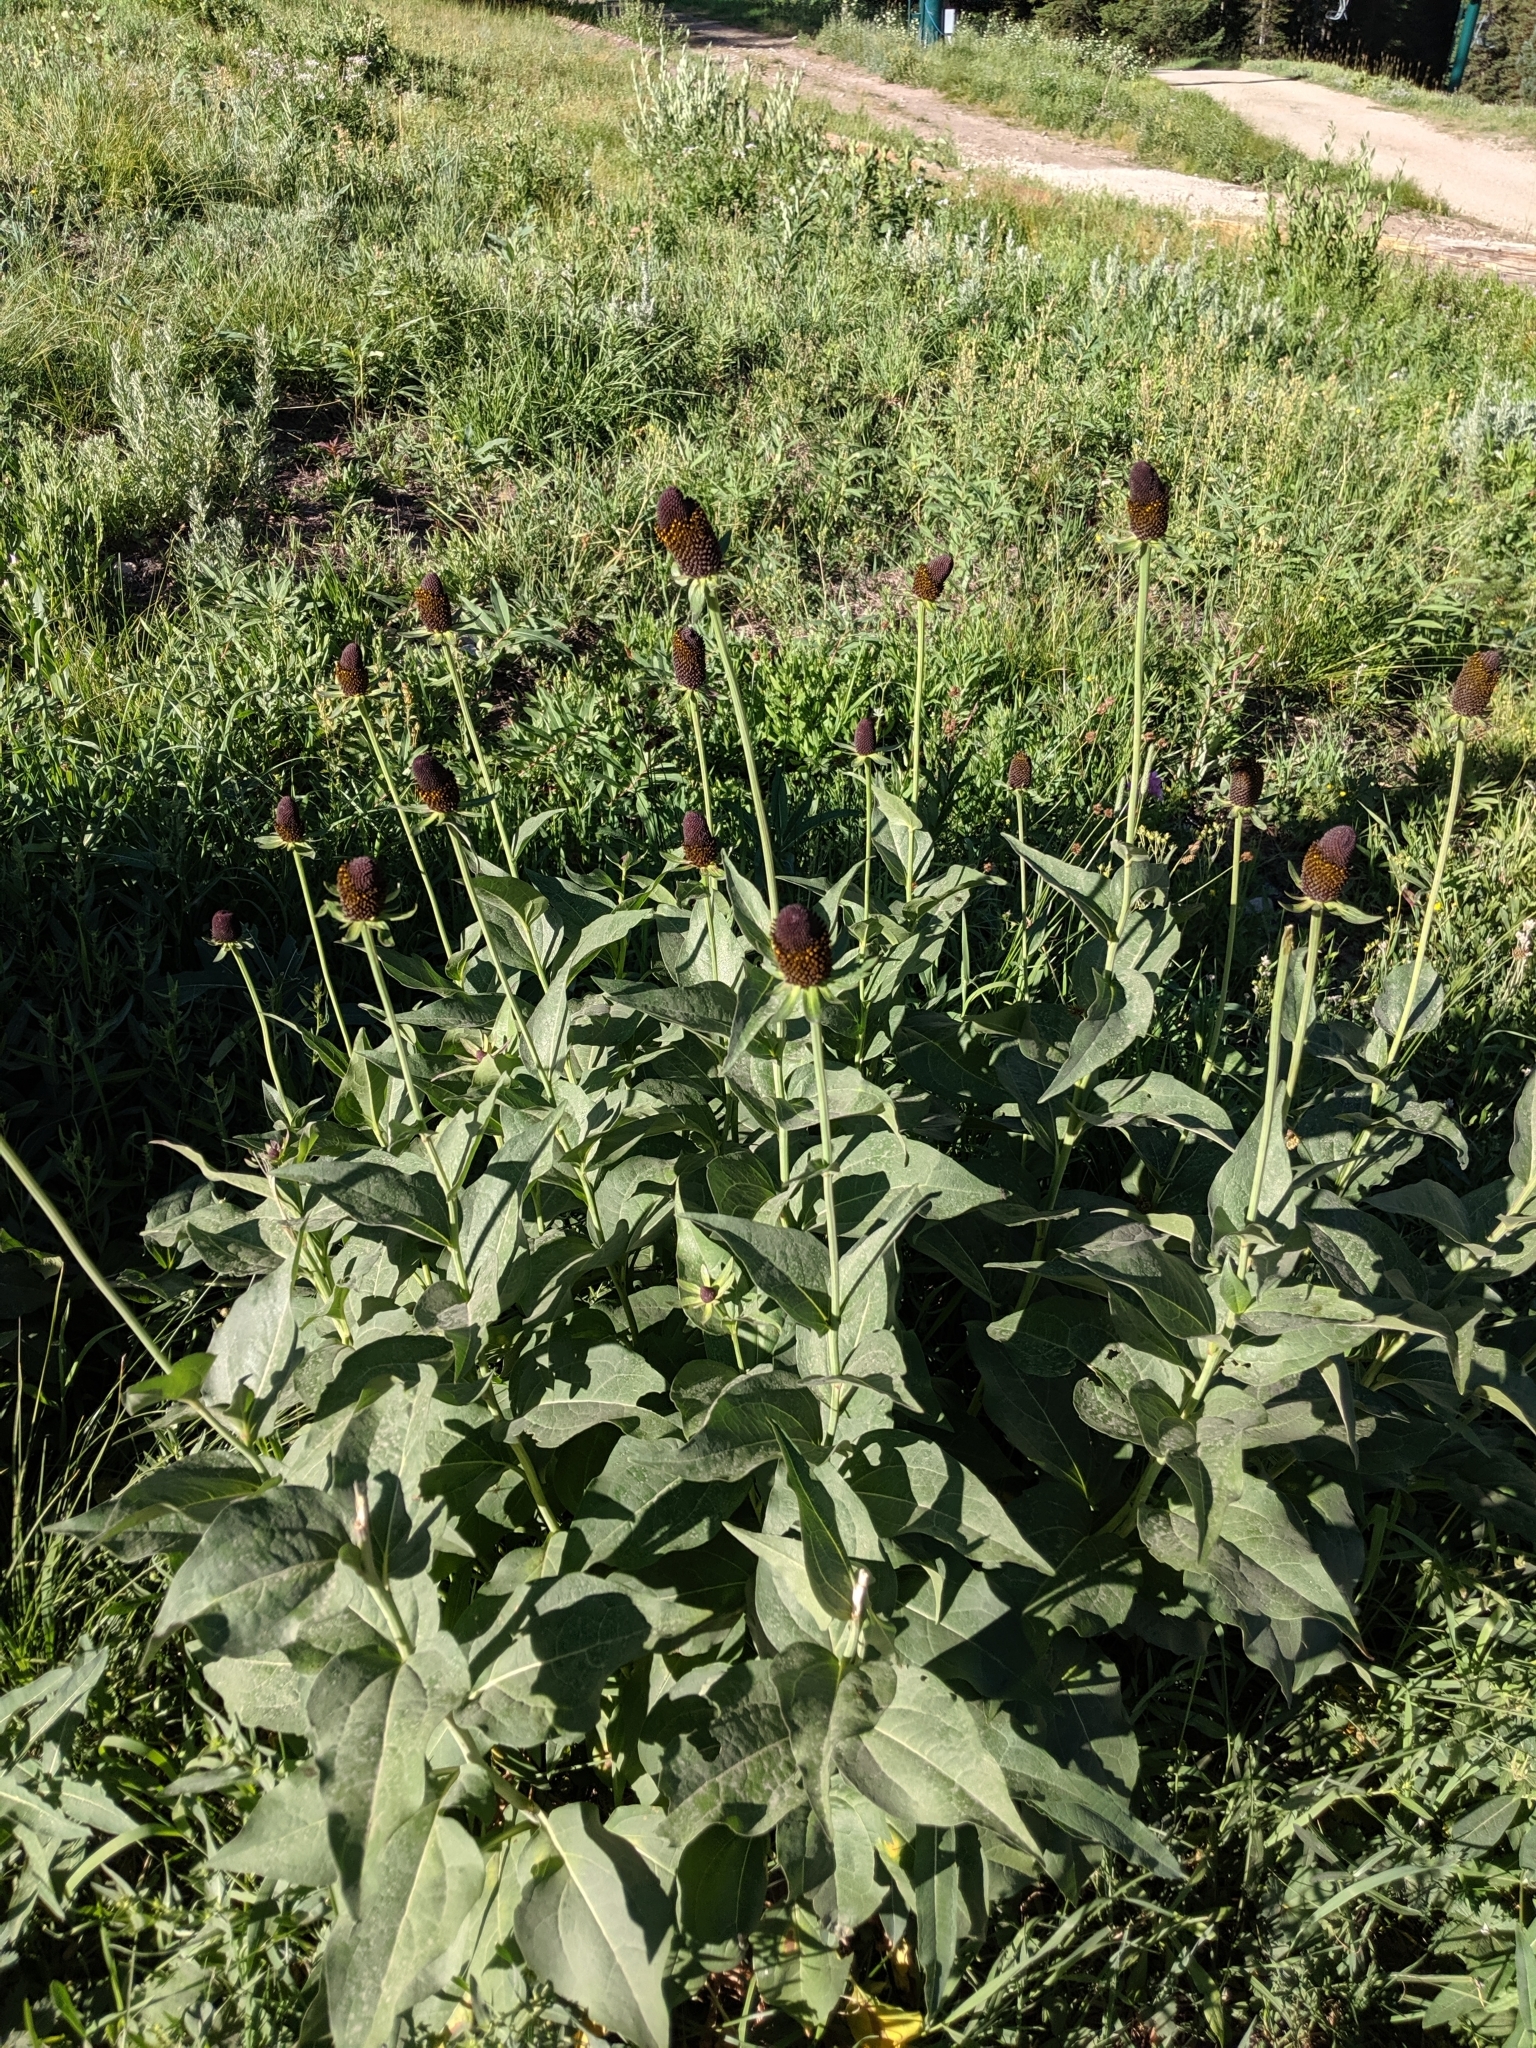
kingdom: Plantae
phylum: Tracheophyta
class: Magnoliopsida
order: Asterales
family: Asteraceae
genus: Rudbeckia
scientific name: Rudbeckia occidentalis
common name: Western coneflower
